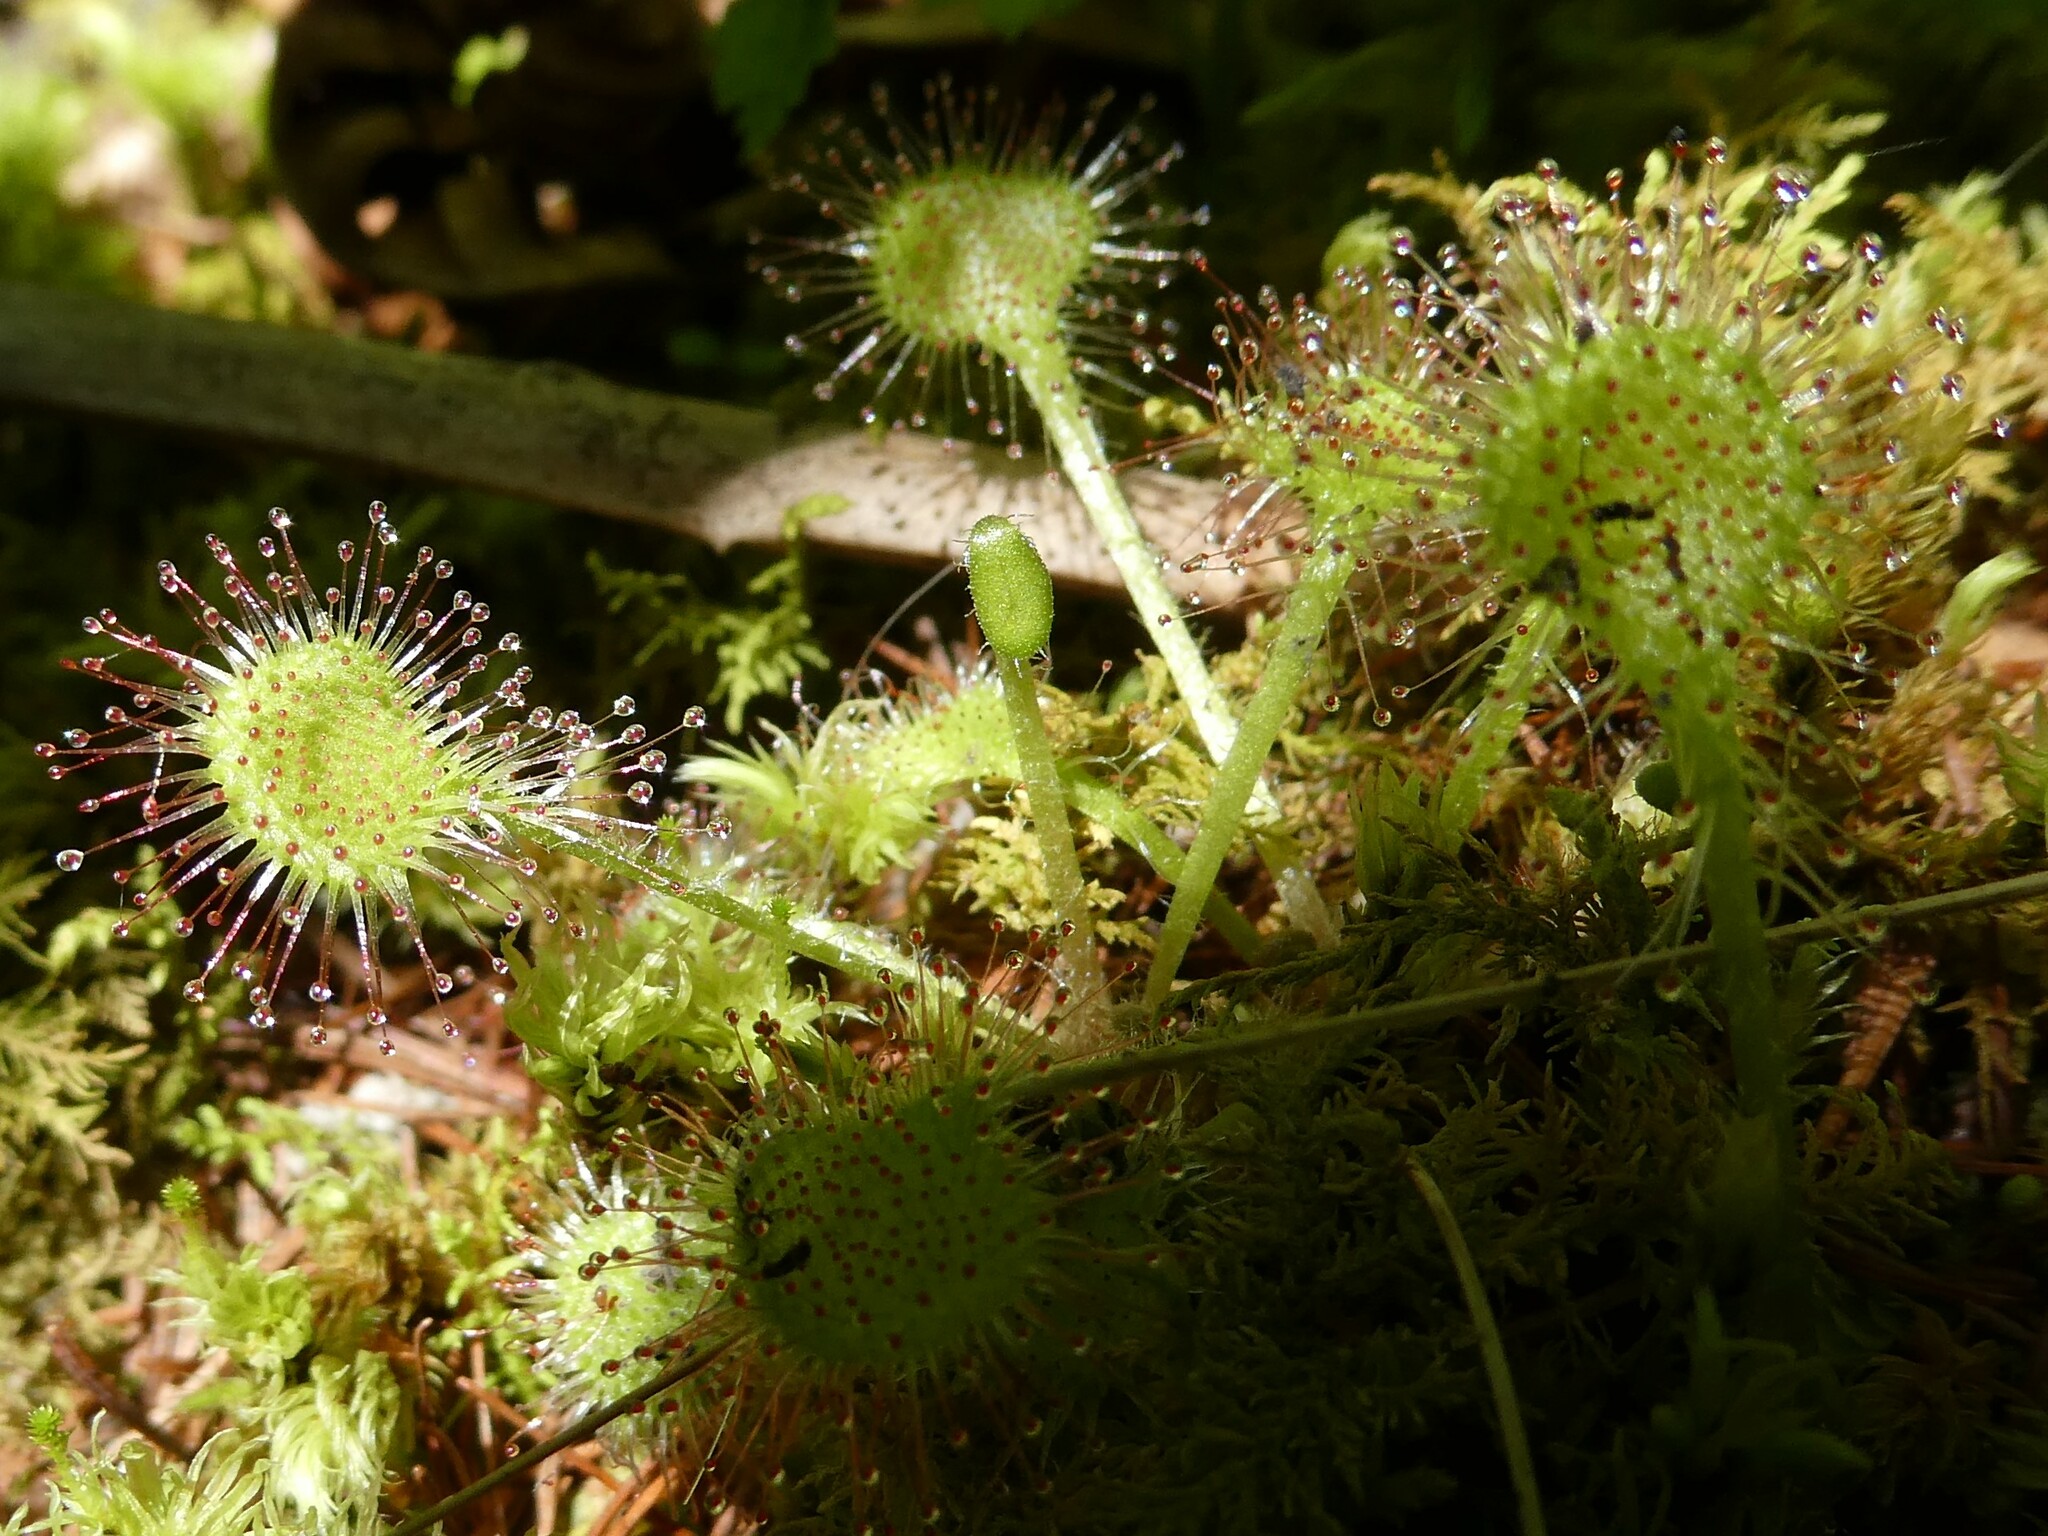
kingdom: Plantae
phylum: Tracheophyta
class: Magnoliopsida
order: Caryophyllales
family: Droseraceae
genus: Drosera
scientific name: Drosera rotundifolia
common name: Round-leaved sundew
